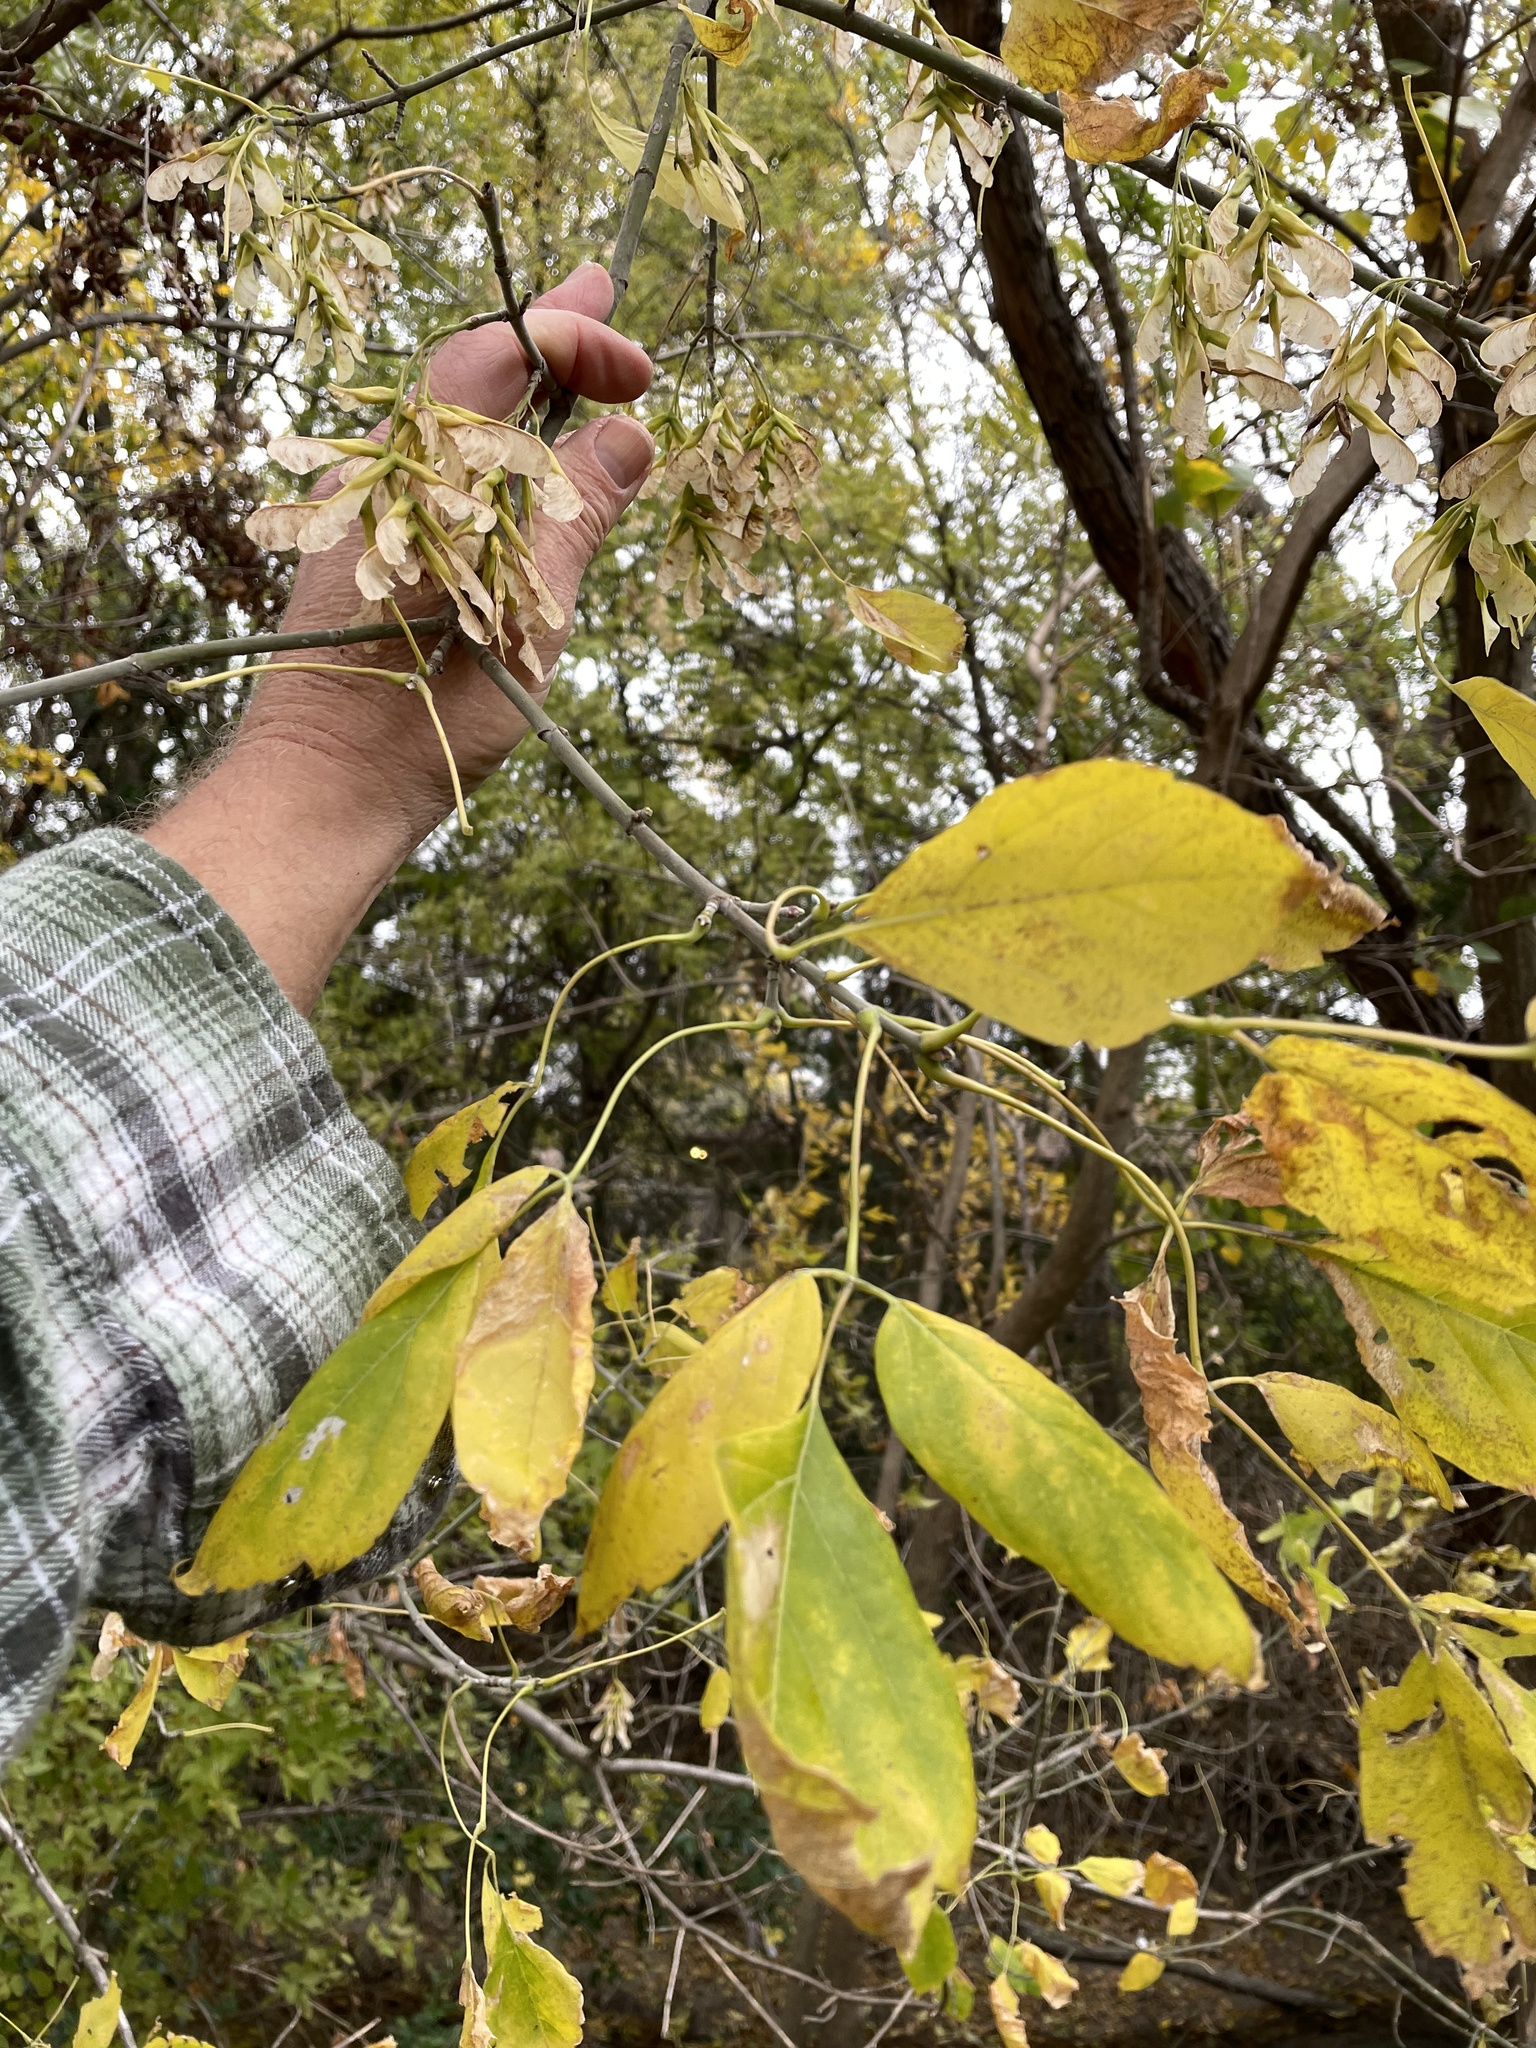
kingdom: Plantae
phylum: Tracheophyta
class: Magnoliopsida
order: Sapindales
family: Sapindaceae
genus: Acer
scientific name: Acer negundo
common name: Ashleaf maple
